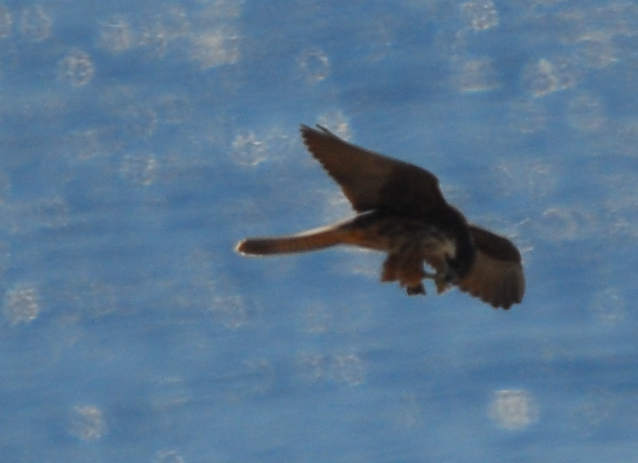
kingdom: Animalia
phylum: Chordata
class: Aves
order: Falconiformes
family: Falconidae
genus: Falco
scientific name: Falco eleonorae
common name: Eleonora's falcon
